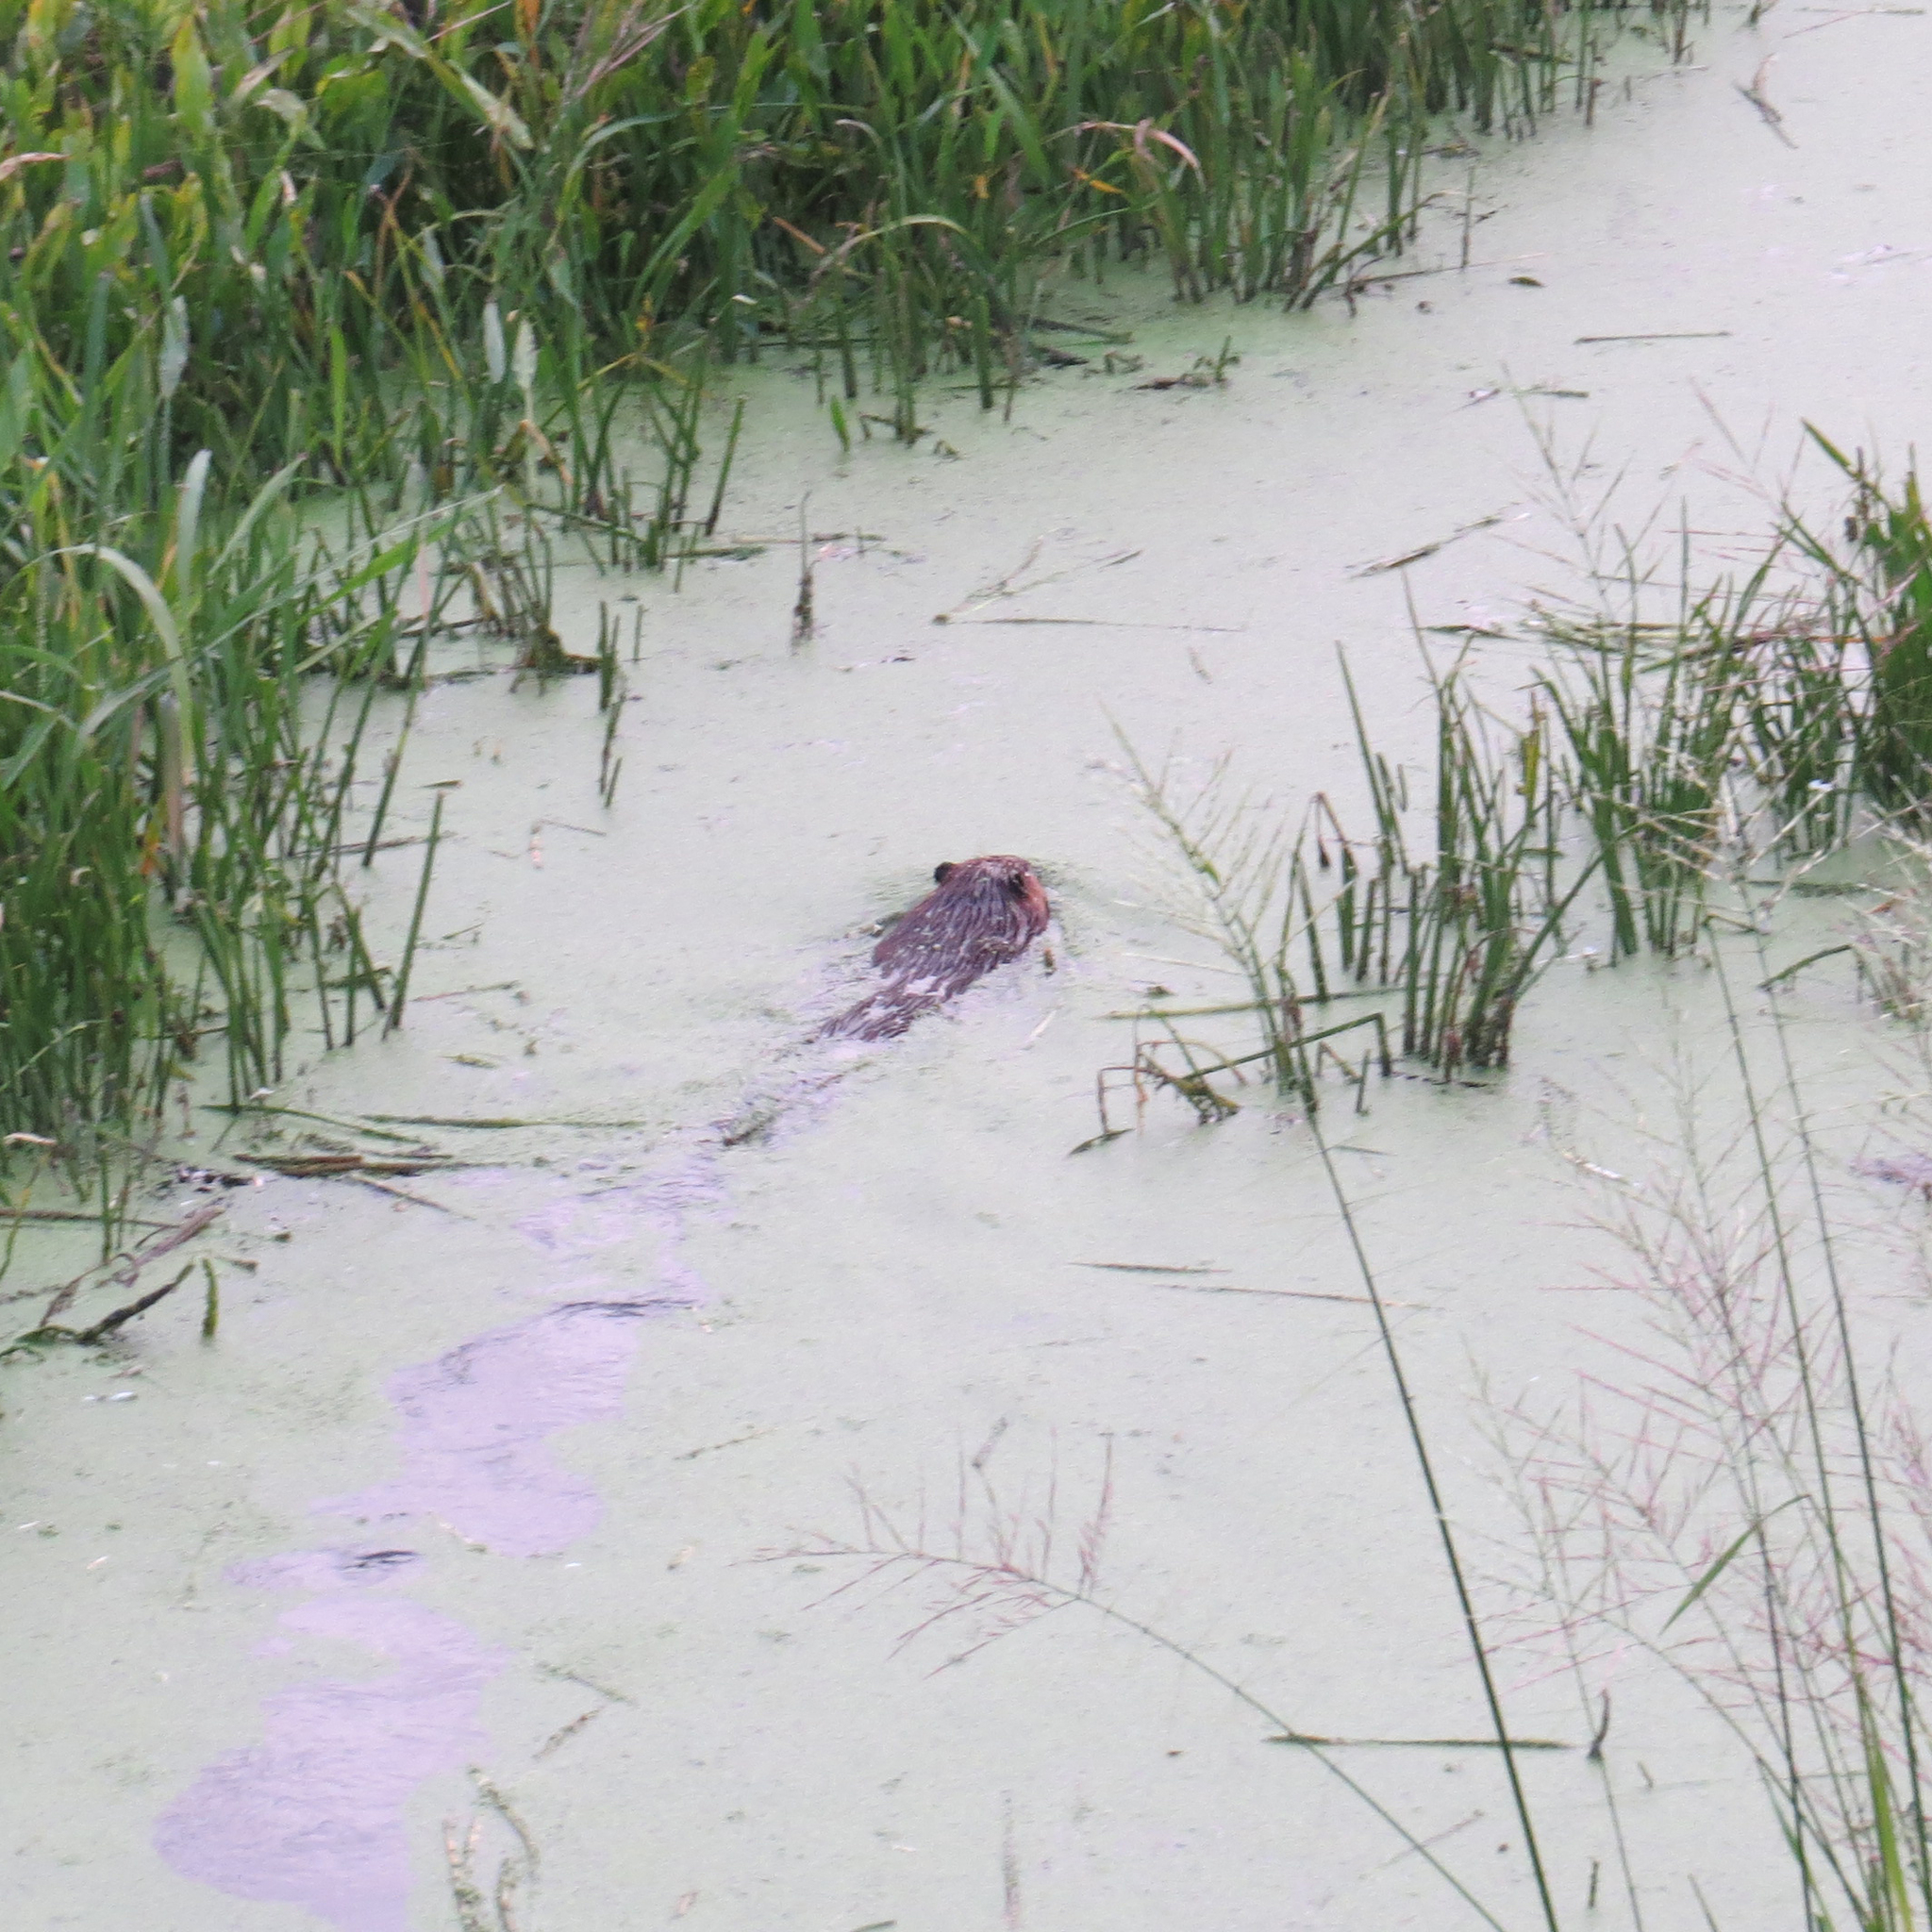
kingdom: Animalia
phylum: Chordata
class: Mammalia
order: Rodentia
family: Castoridae
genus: Castor
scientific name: Castor canadensis
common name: American beaver
